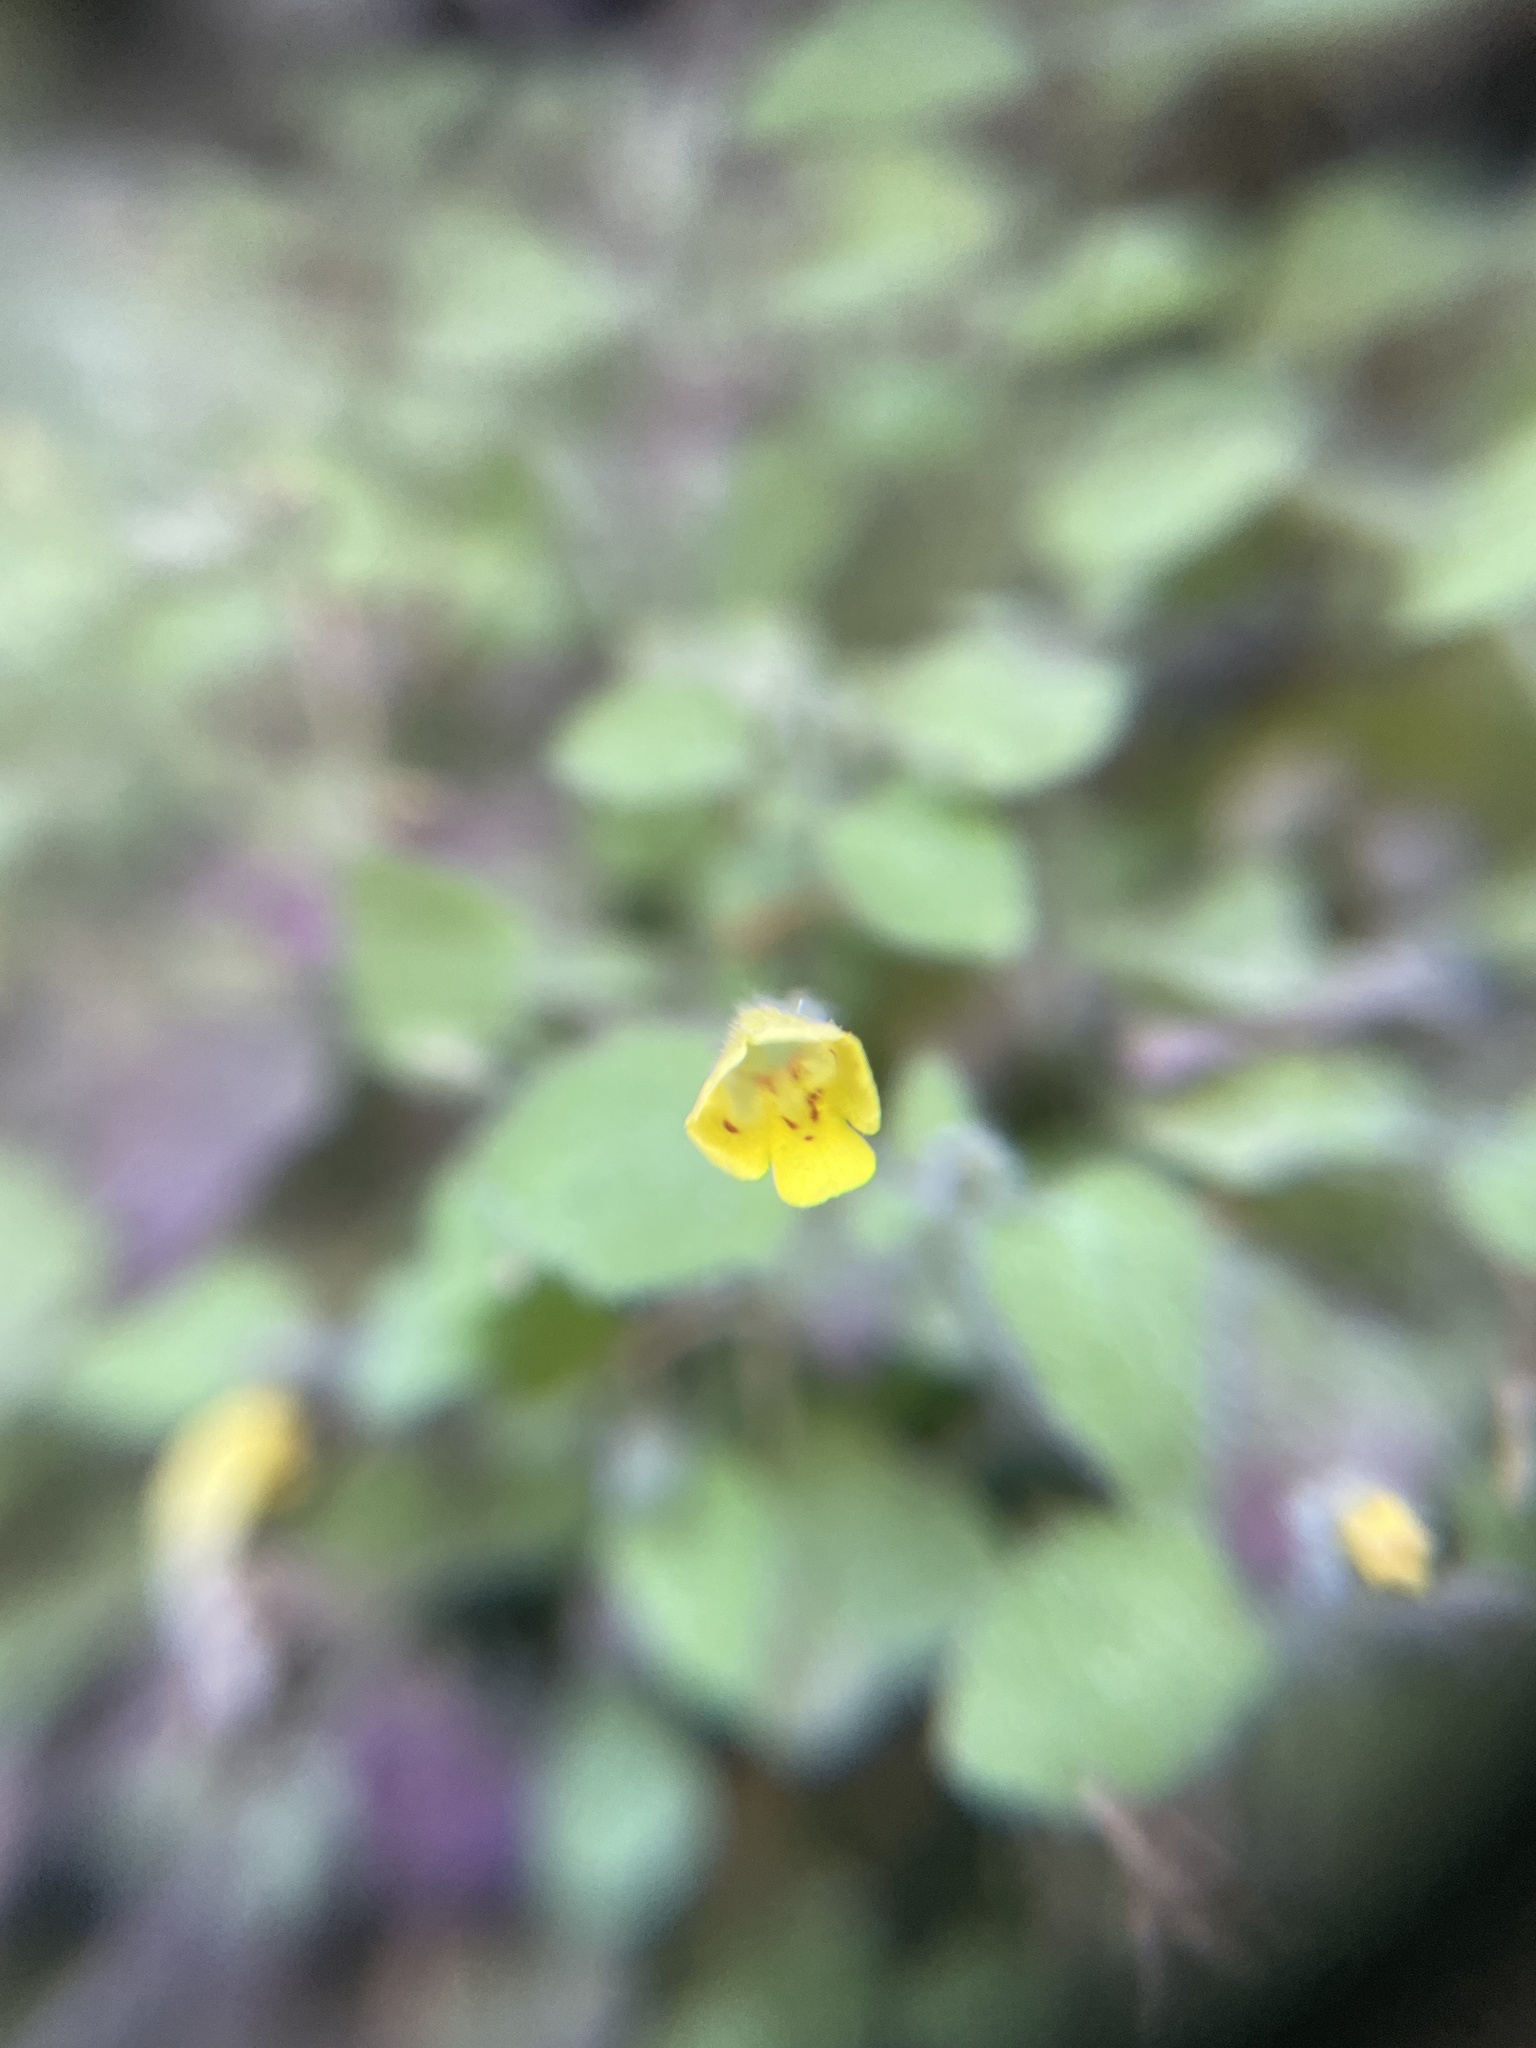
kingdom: Plantae
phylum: Tracheophyta
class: Magnoliopsida
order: Lamiales
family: Phrymaceae
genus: Erythranthe
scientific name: Erythranthe floribunda
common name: Floriferous monkeyflower
